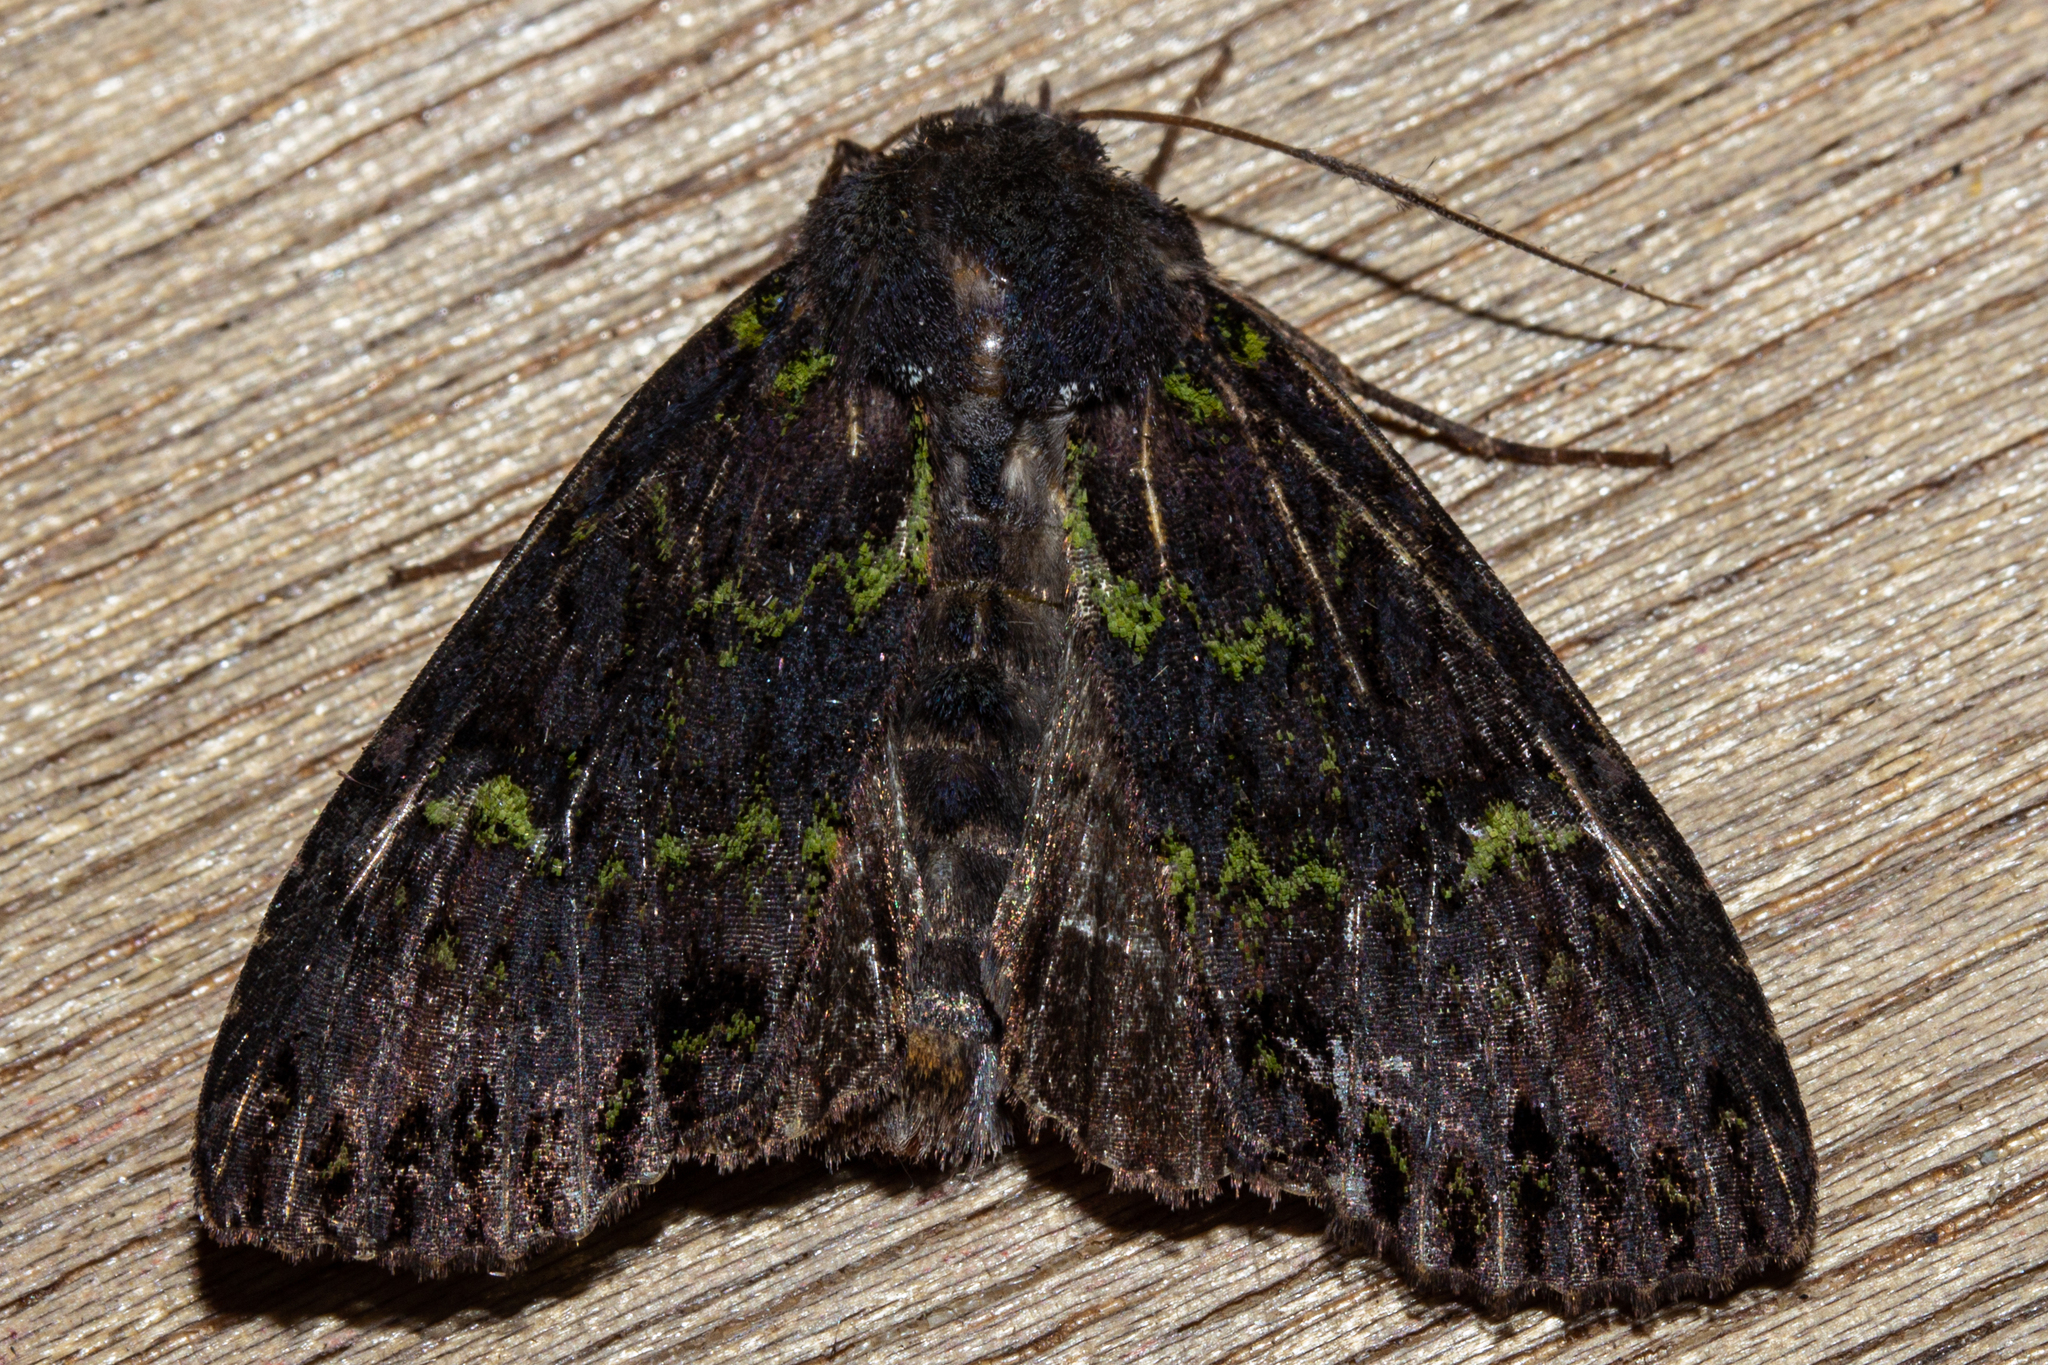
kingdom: Animalia
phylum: Arthropoda
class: Insecta
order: Lepidoptera
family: Noctuidae
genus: Meterana
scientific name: Meterana merope
